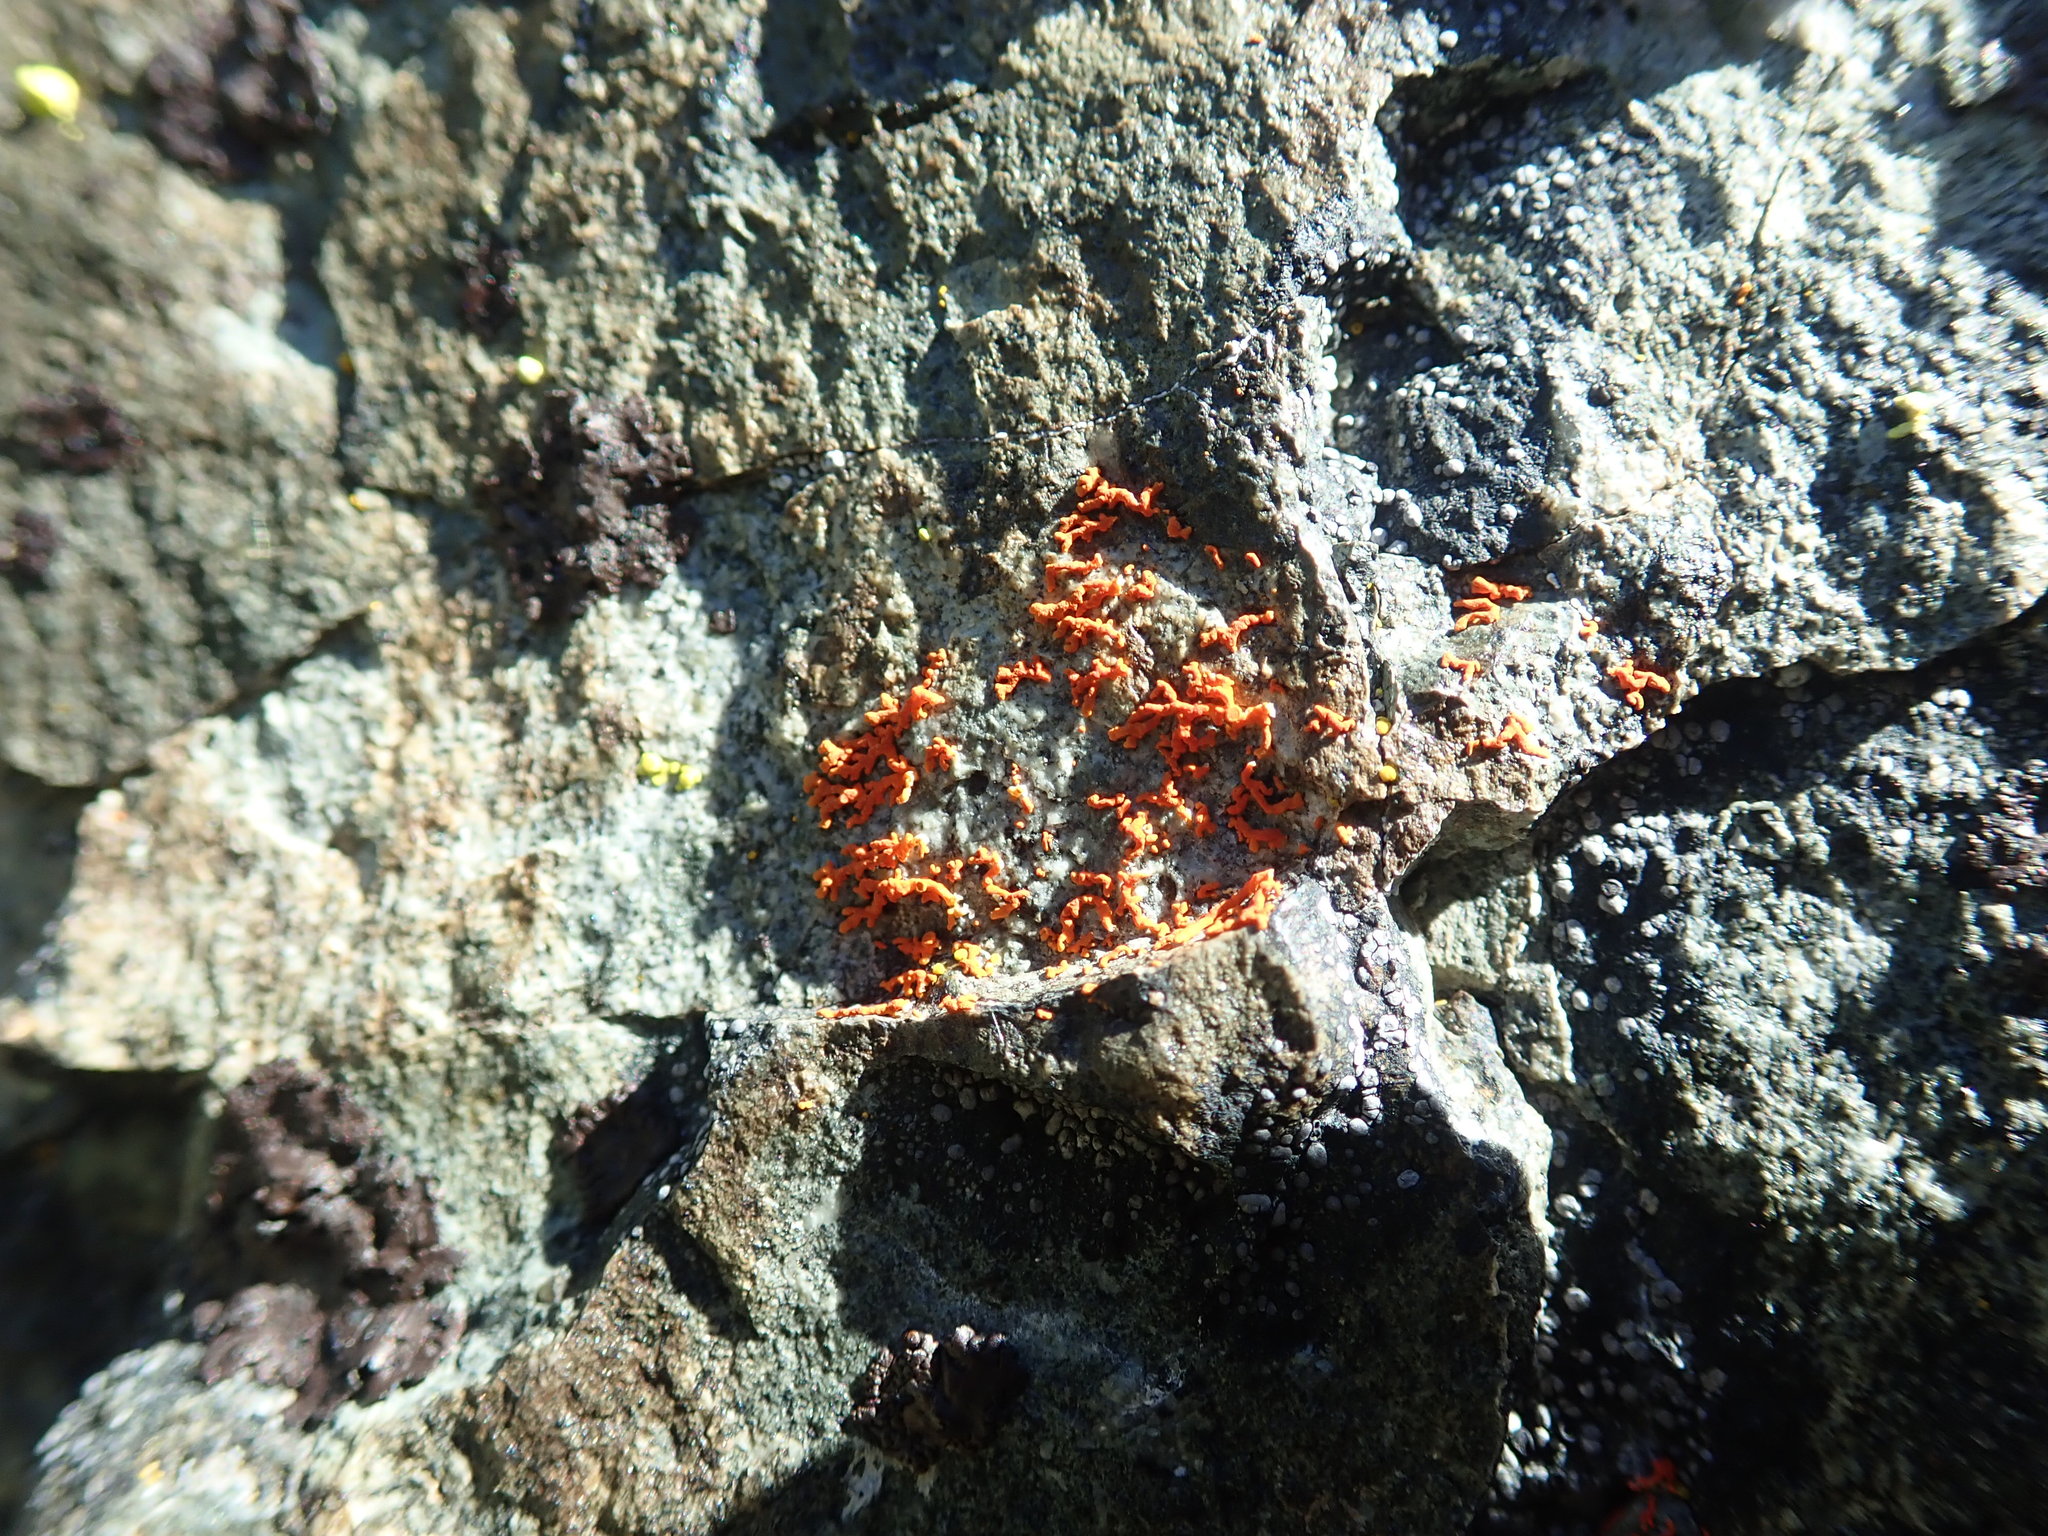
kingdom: Fungi
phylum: Ascomycota
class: Lecanoromycetes
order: Teloschistales
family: Teloschistaceae
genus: Xanthoria
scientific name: Xanthoria elegans
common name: Elegant sunburst lichen
